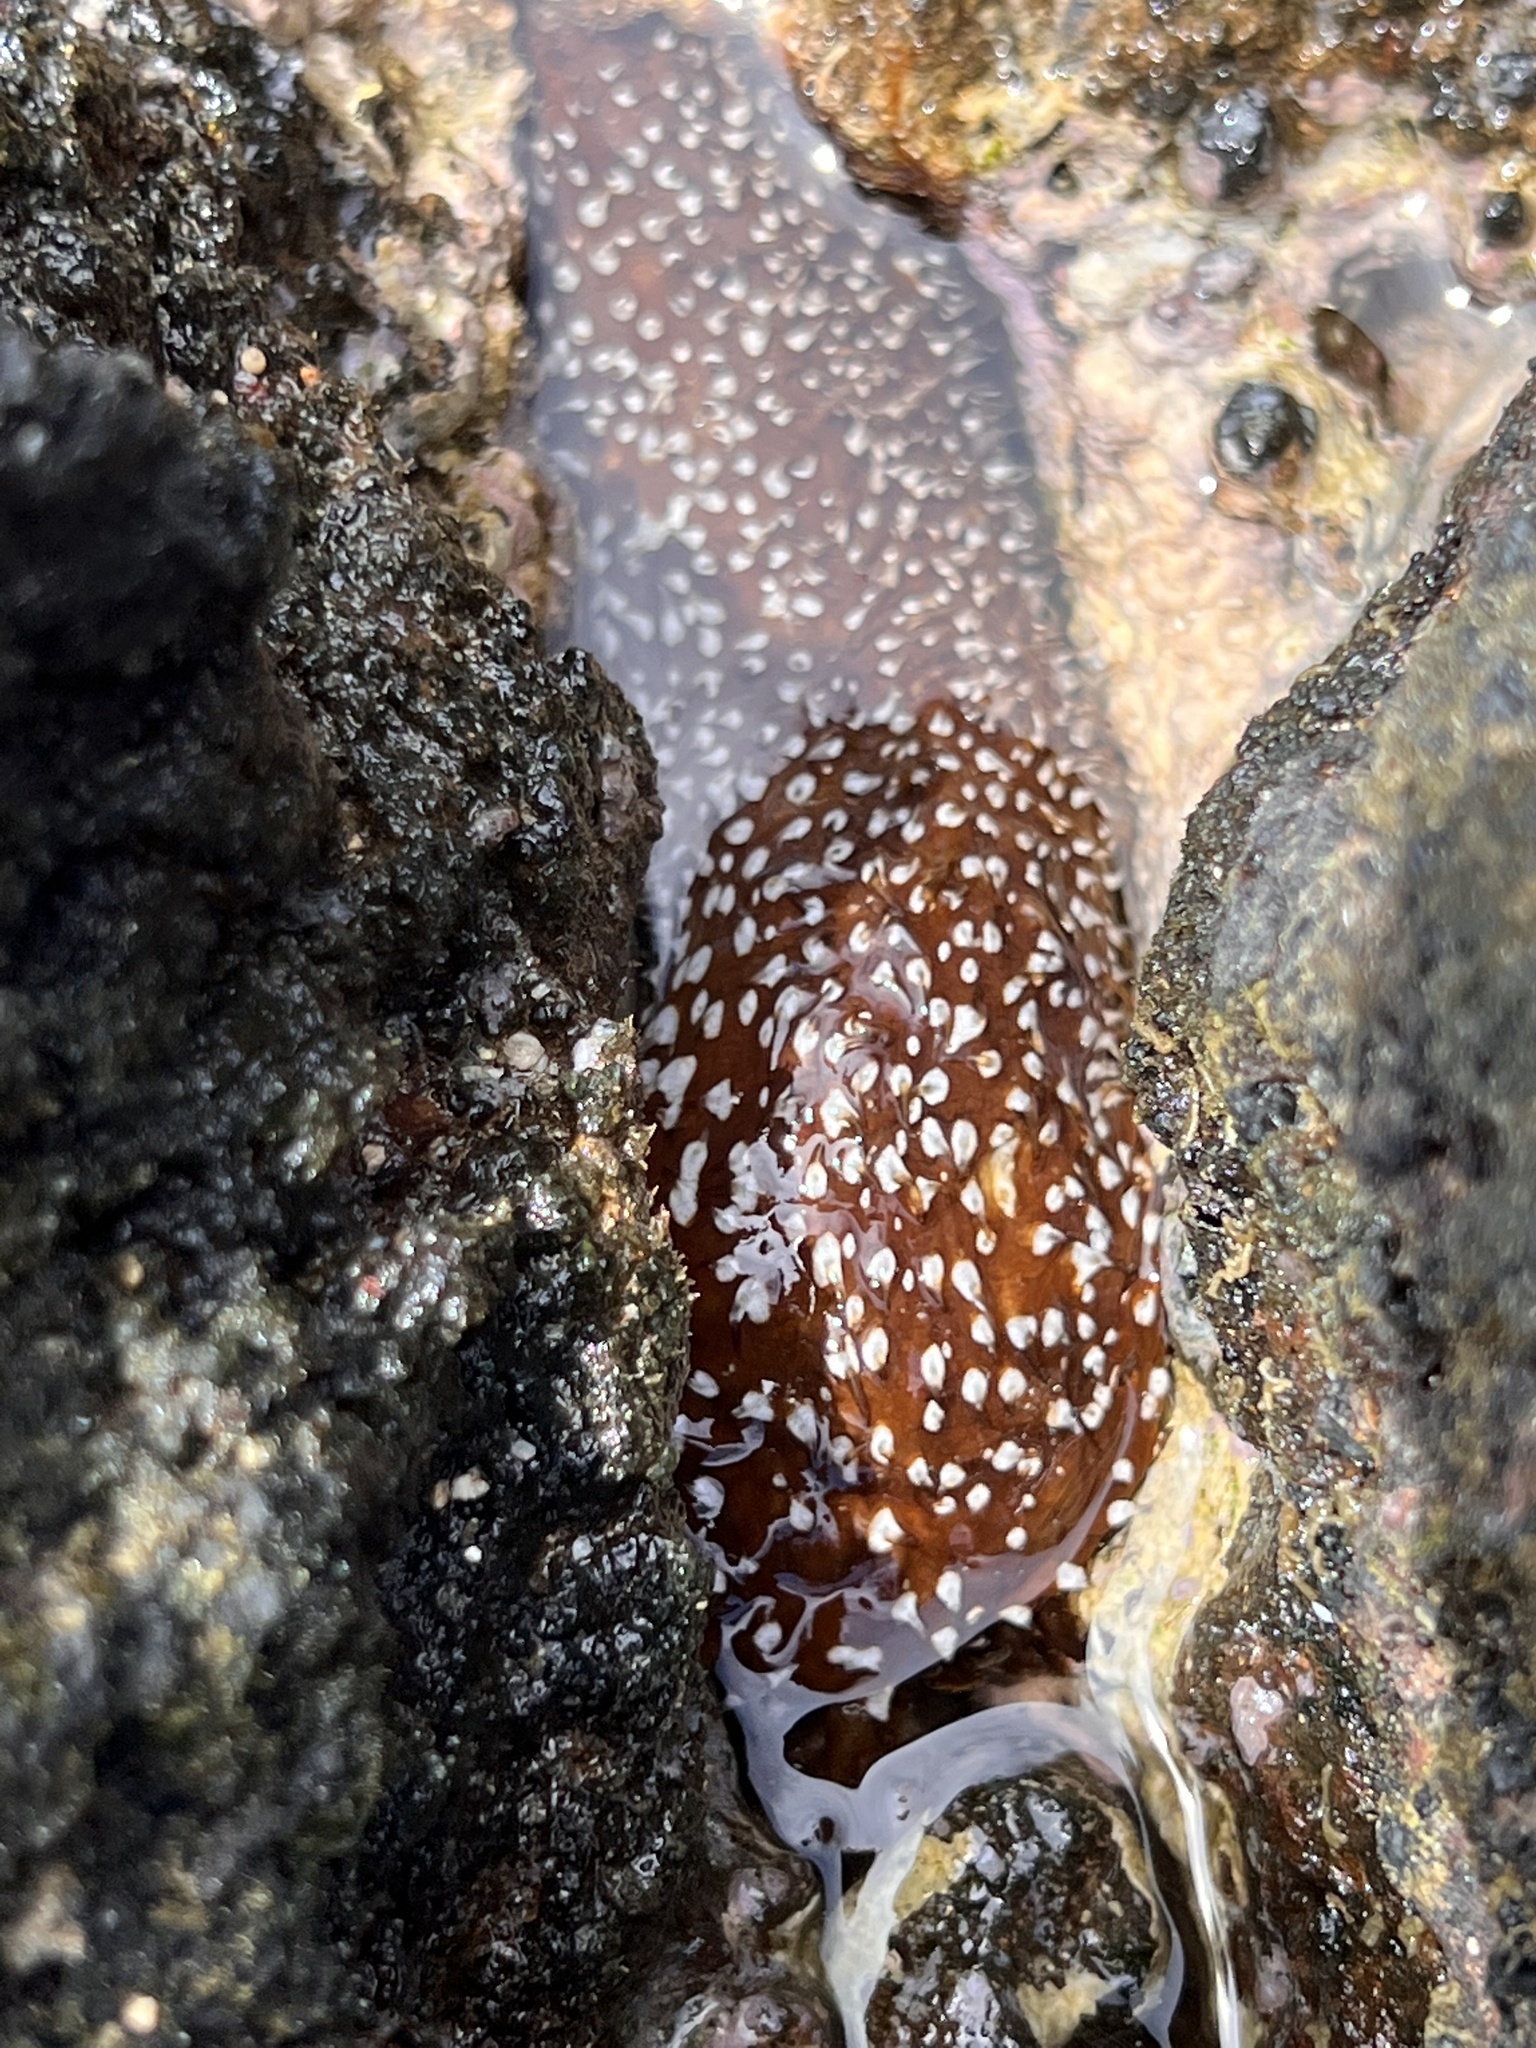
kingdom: Animalia
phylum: Echinodermata
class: Holothuroidea
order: Holothuriida
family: Holothuriidae
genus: Actinopyga
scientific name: Actinopyga varians
